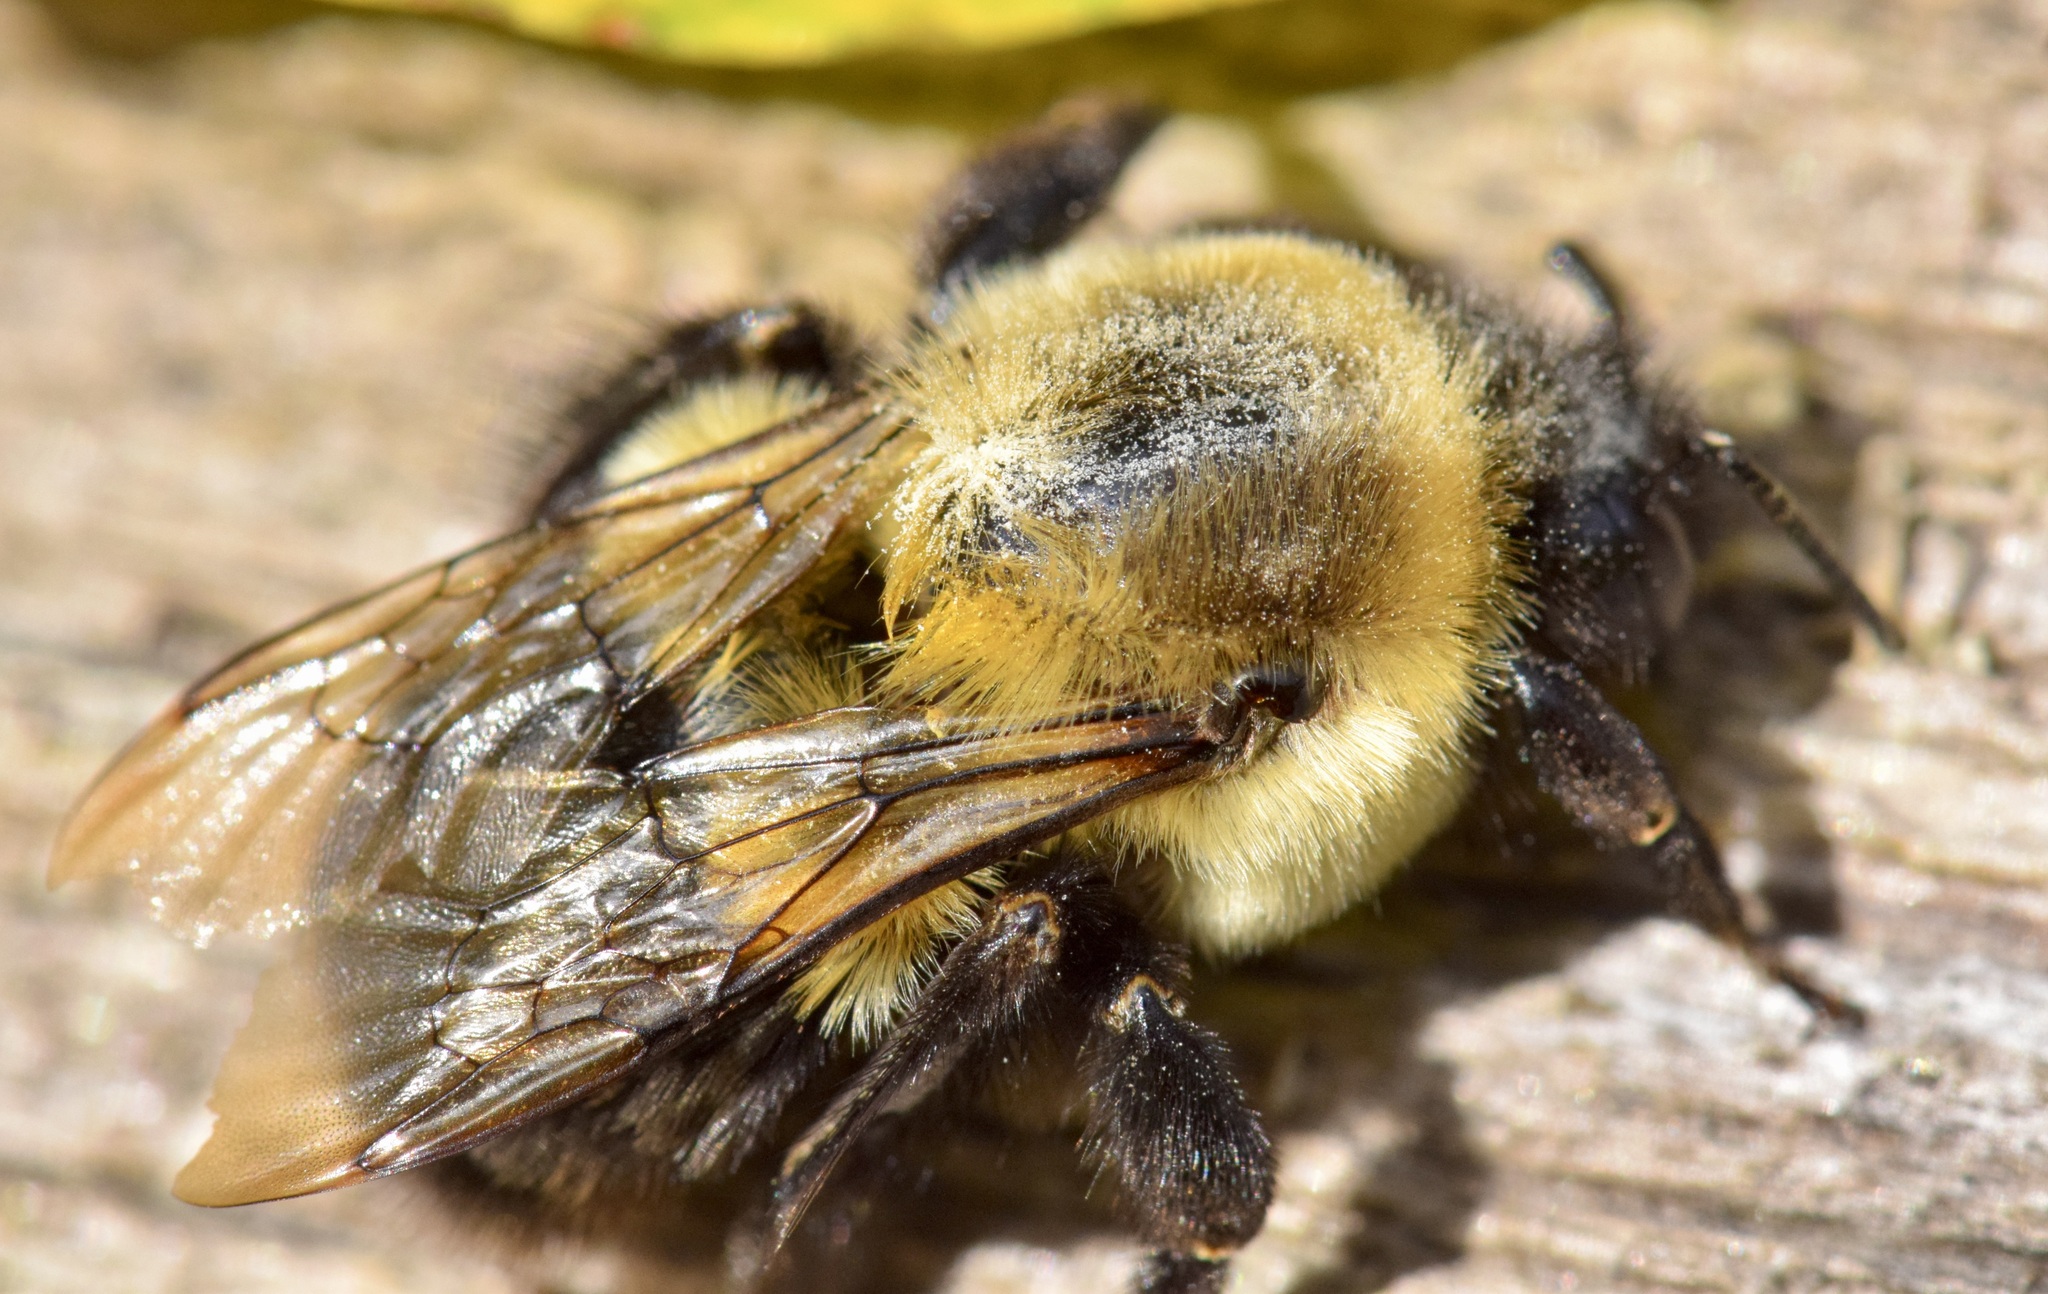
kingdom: Animalia
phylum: Arthropoda
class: Insecta
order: Hymenoptera
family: Apidae
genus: Bombus
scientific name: Bombus impatiens
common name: Common eastern bumble bee
